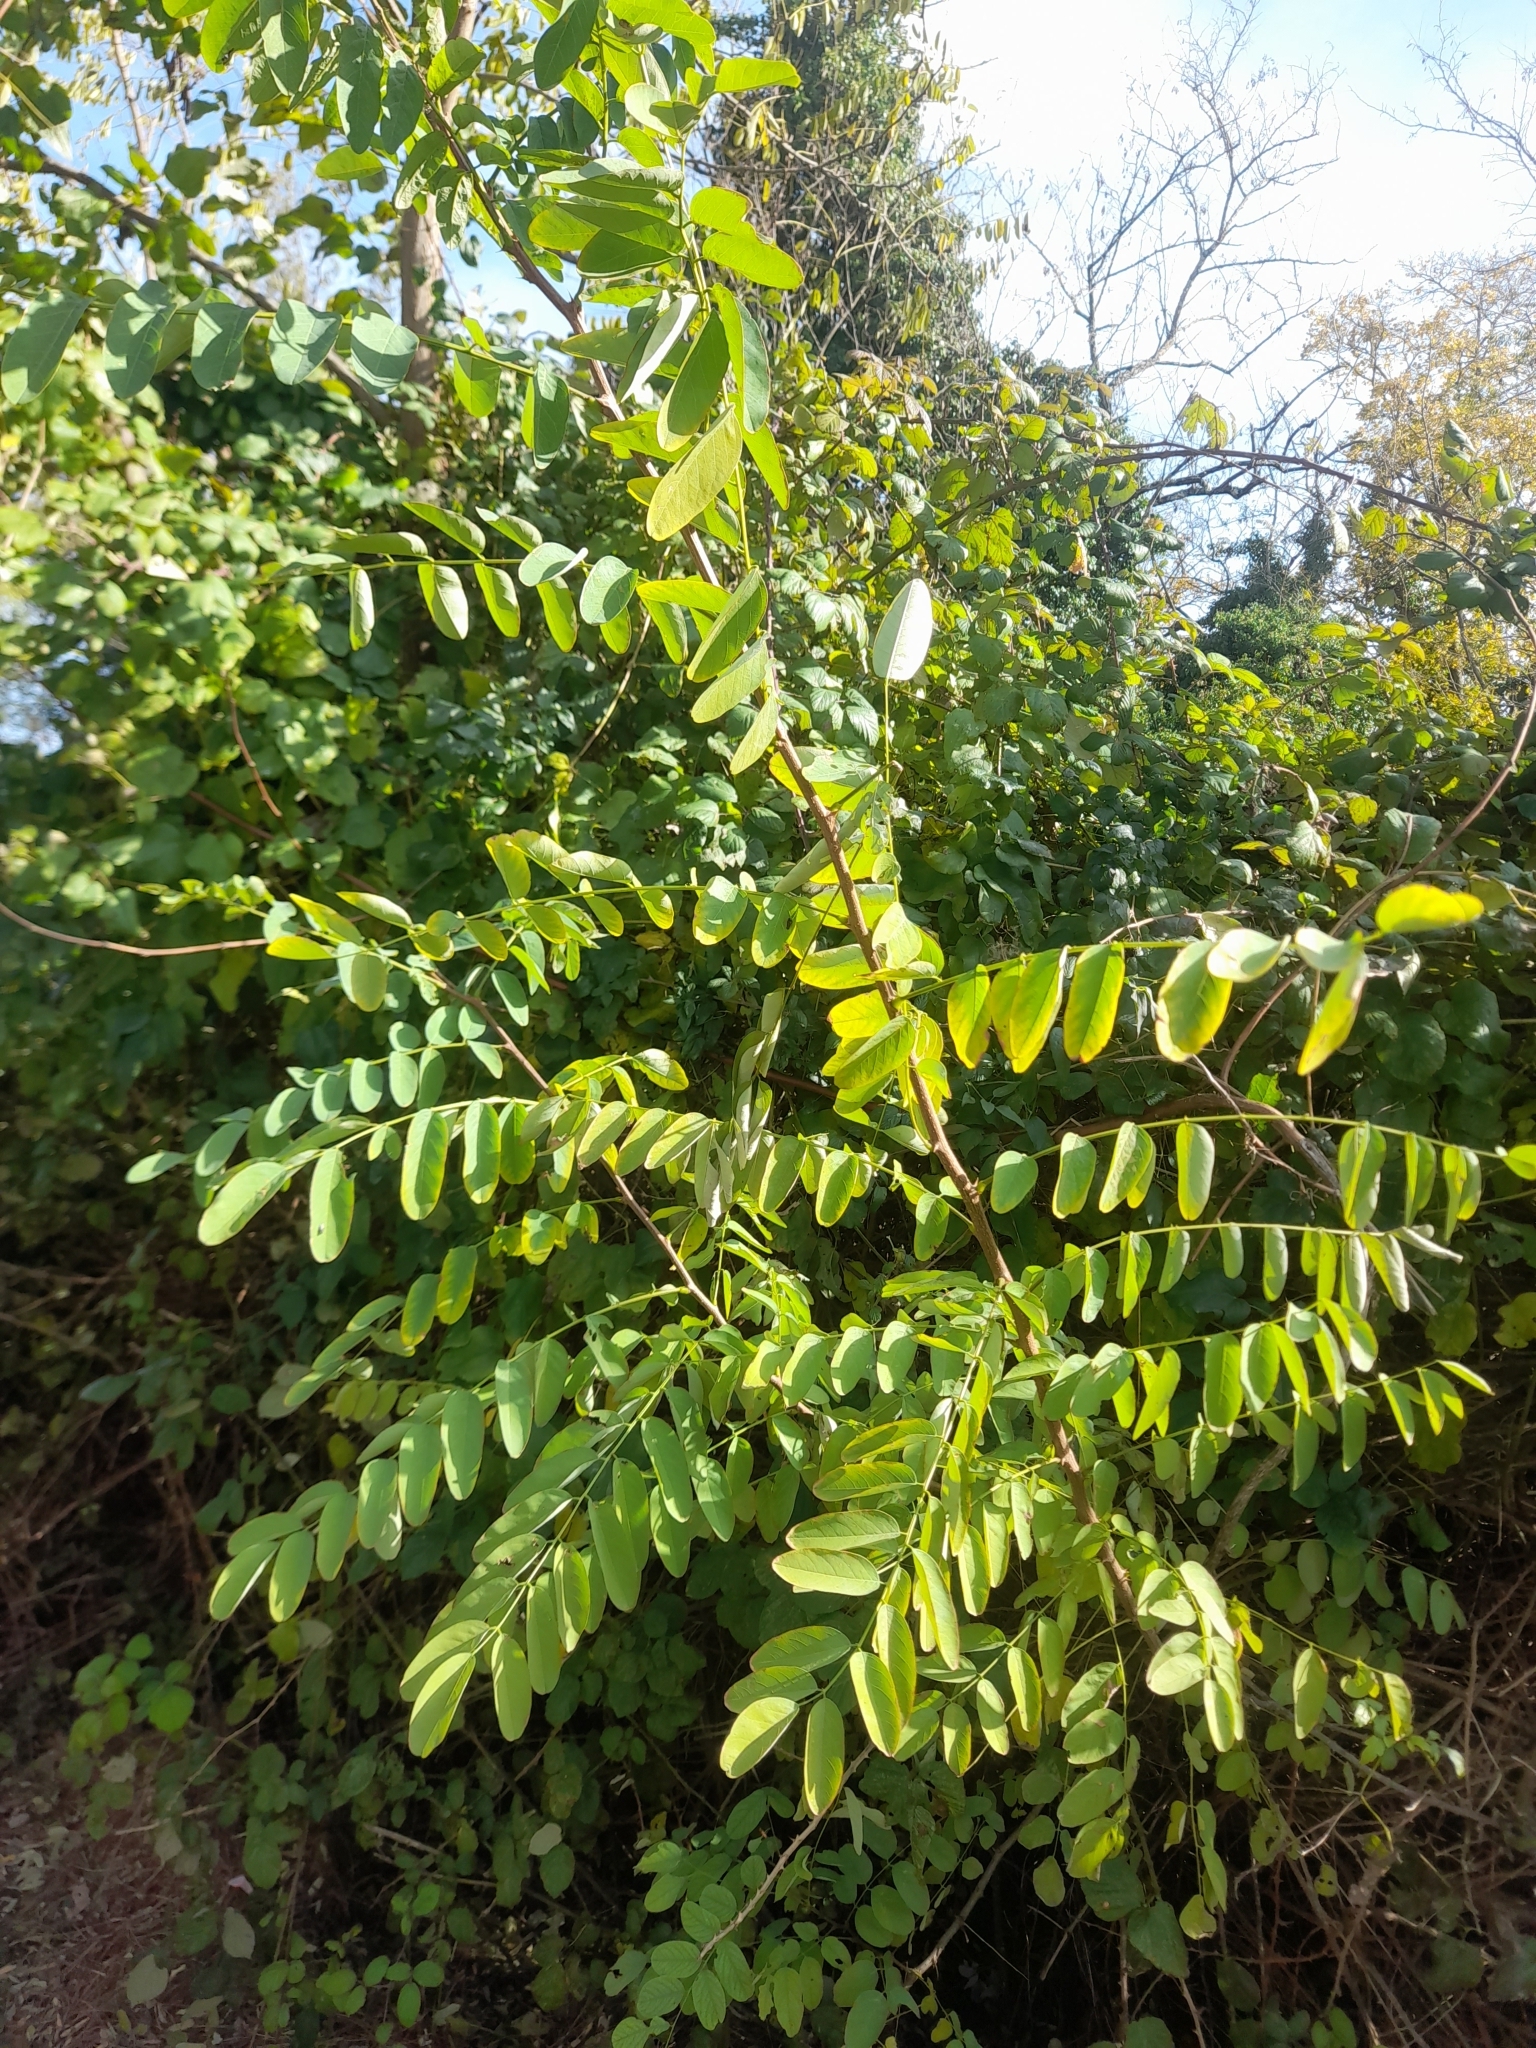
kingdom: Plantae
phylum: Tracheophyta
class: Magnoliopsida
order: Fabales
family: Fabaceae
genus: Robinia
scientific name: Robinia pseudoacacia
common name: Black locust
